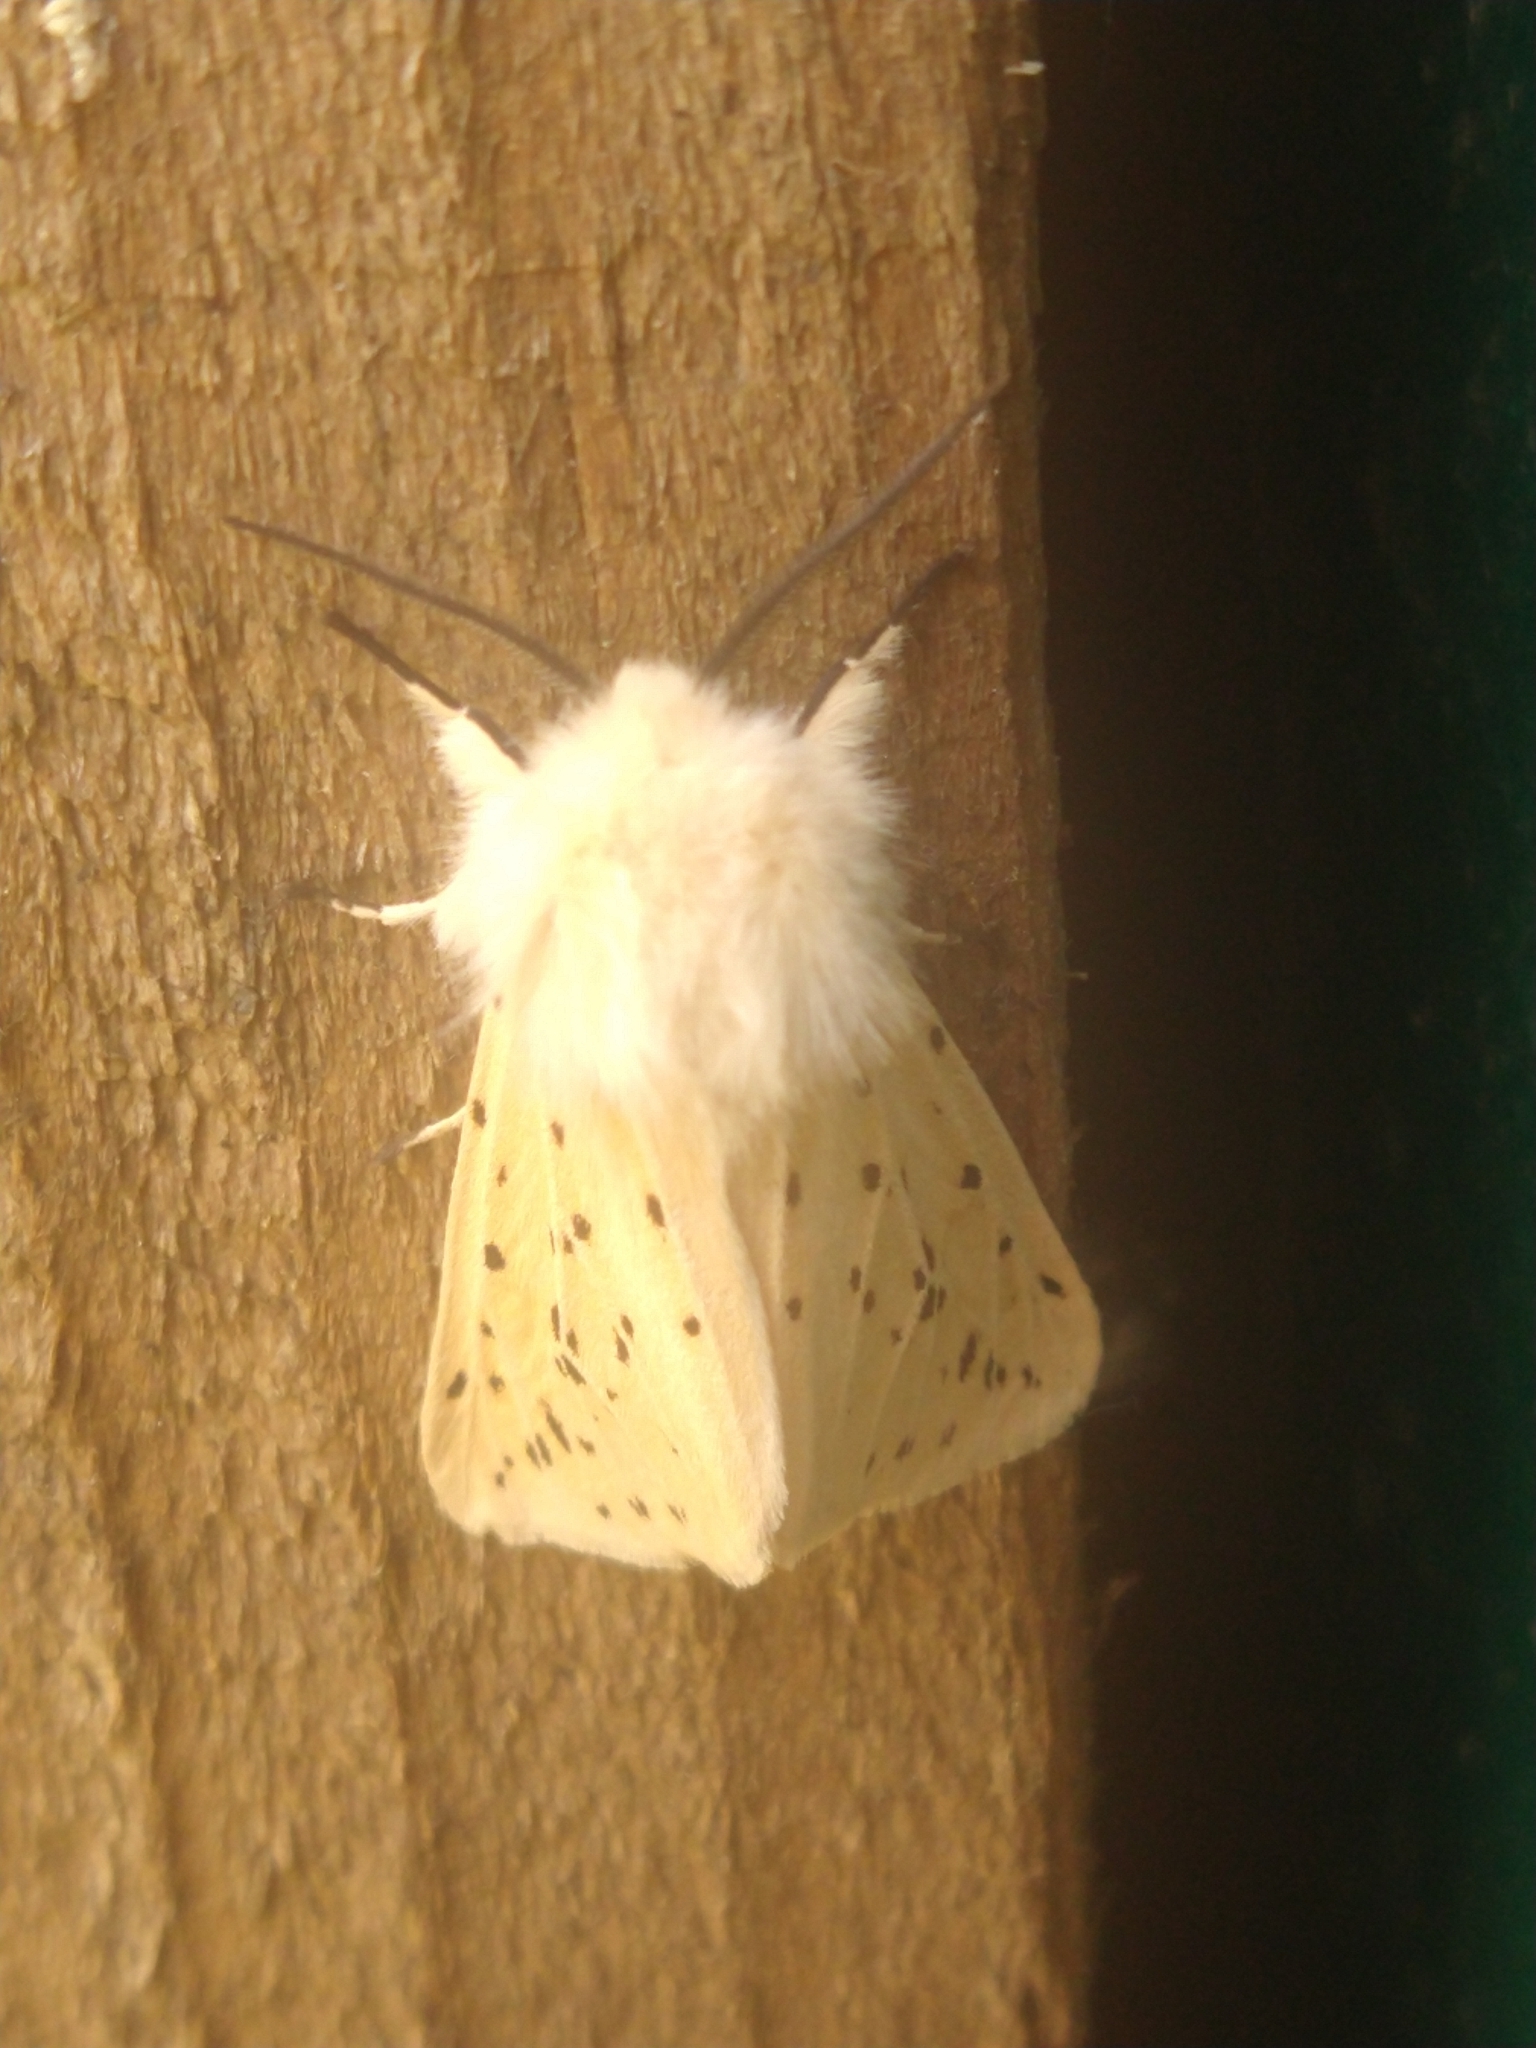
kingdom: Animalia
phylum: Arthropoda
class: Insecta
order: Lepidoptera
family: Erebidae
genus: Spilosoma
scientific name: Spilosoma lubricipeda
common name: White ermine
